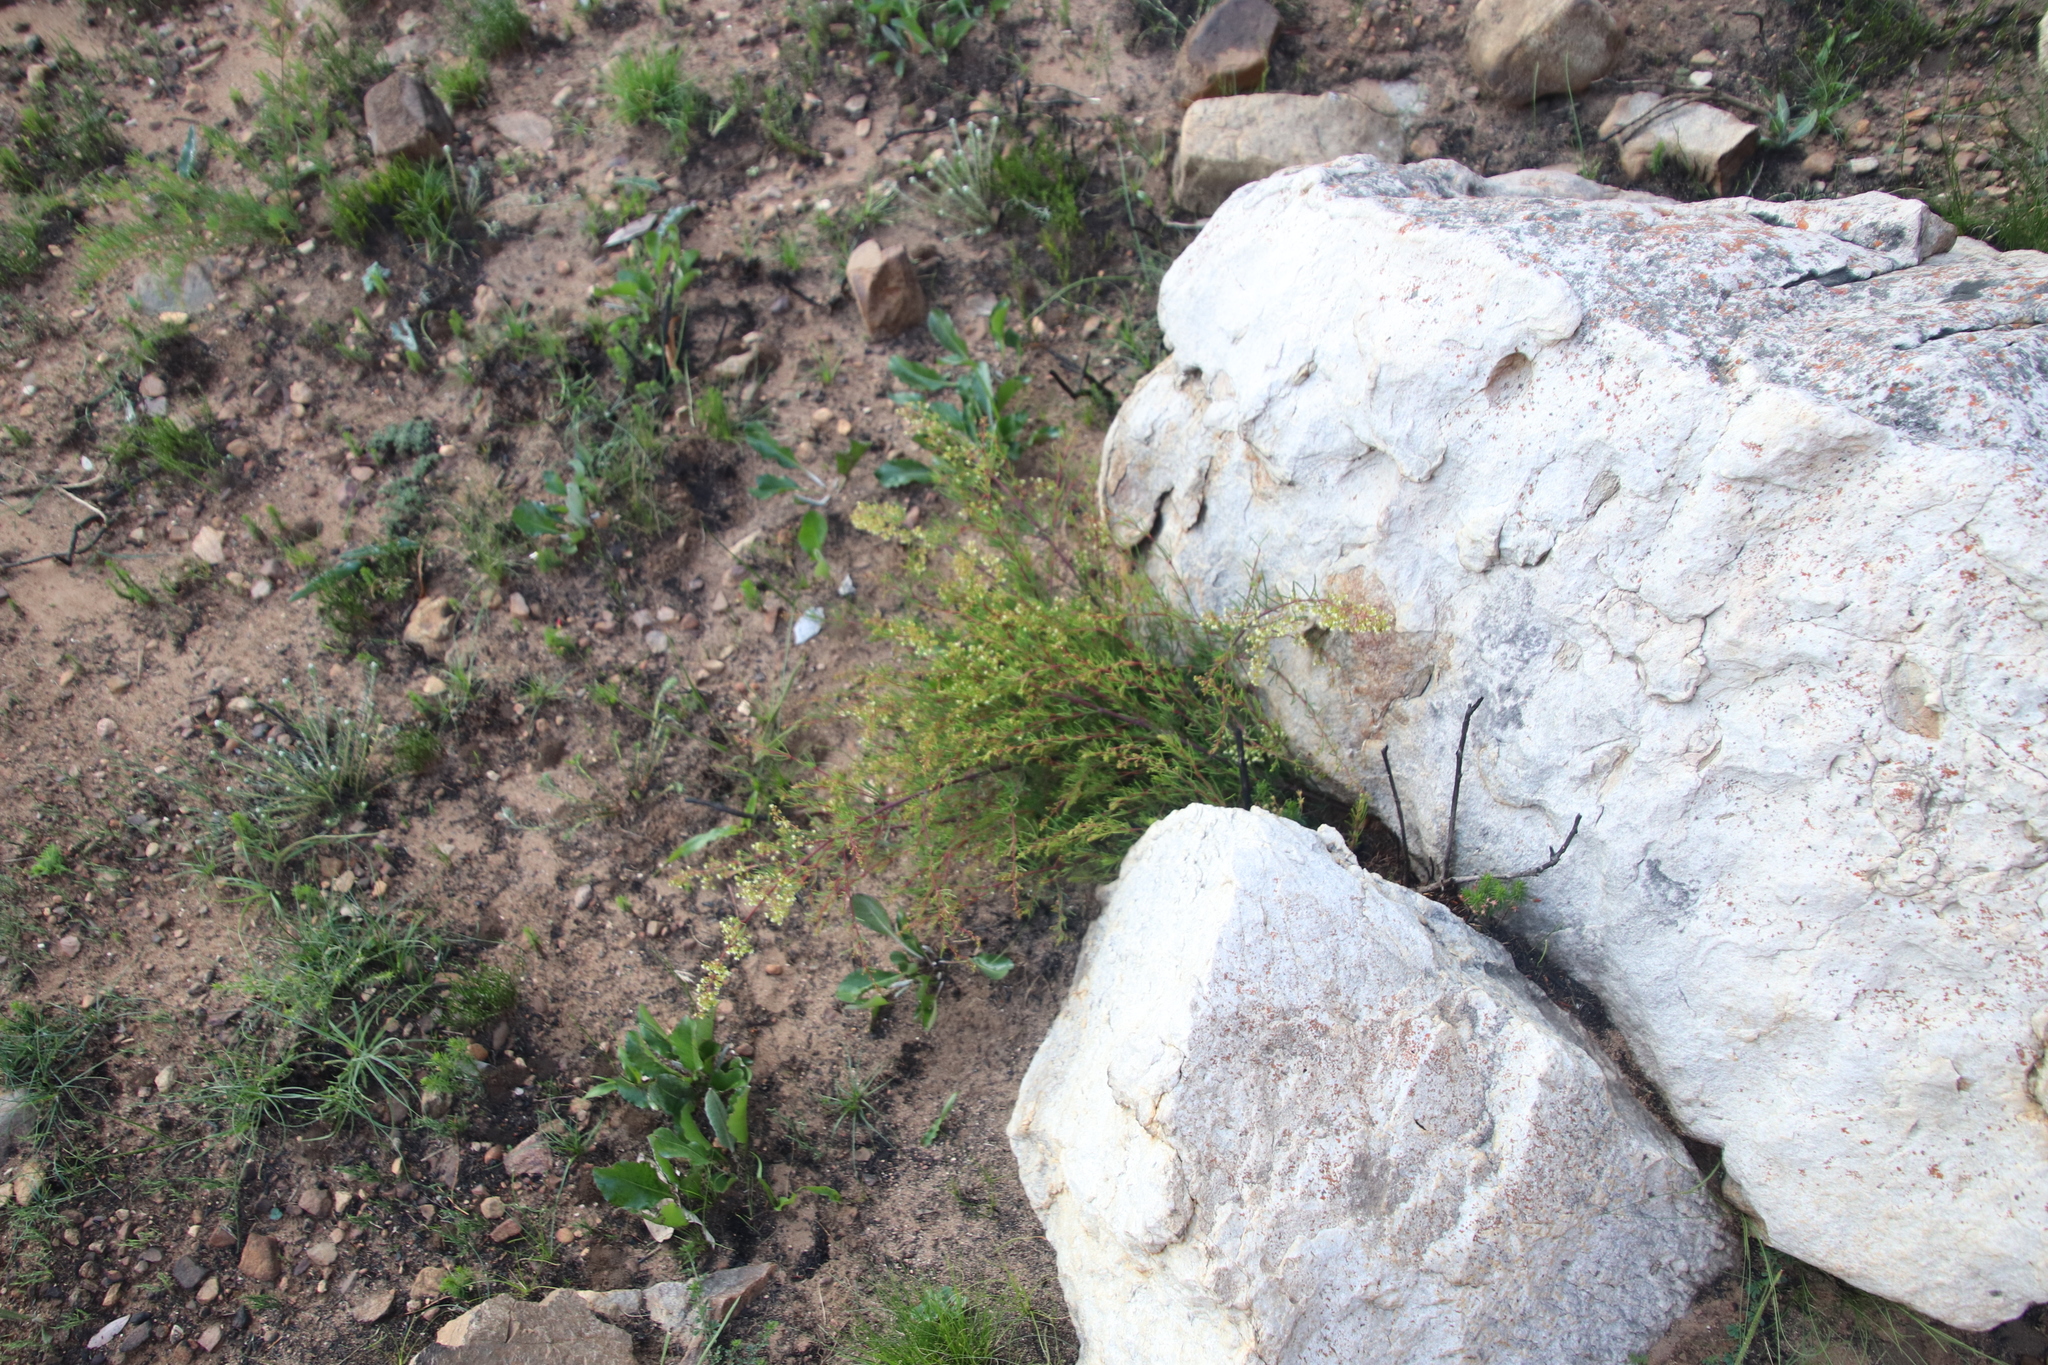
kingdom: Plantae
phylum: Tracheophyta
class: Magnoliopsida
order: Sapindales
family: Anacardiaceae
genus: Searsia
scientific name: Searsia rosmarinifolia
